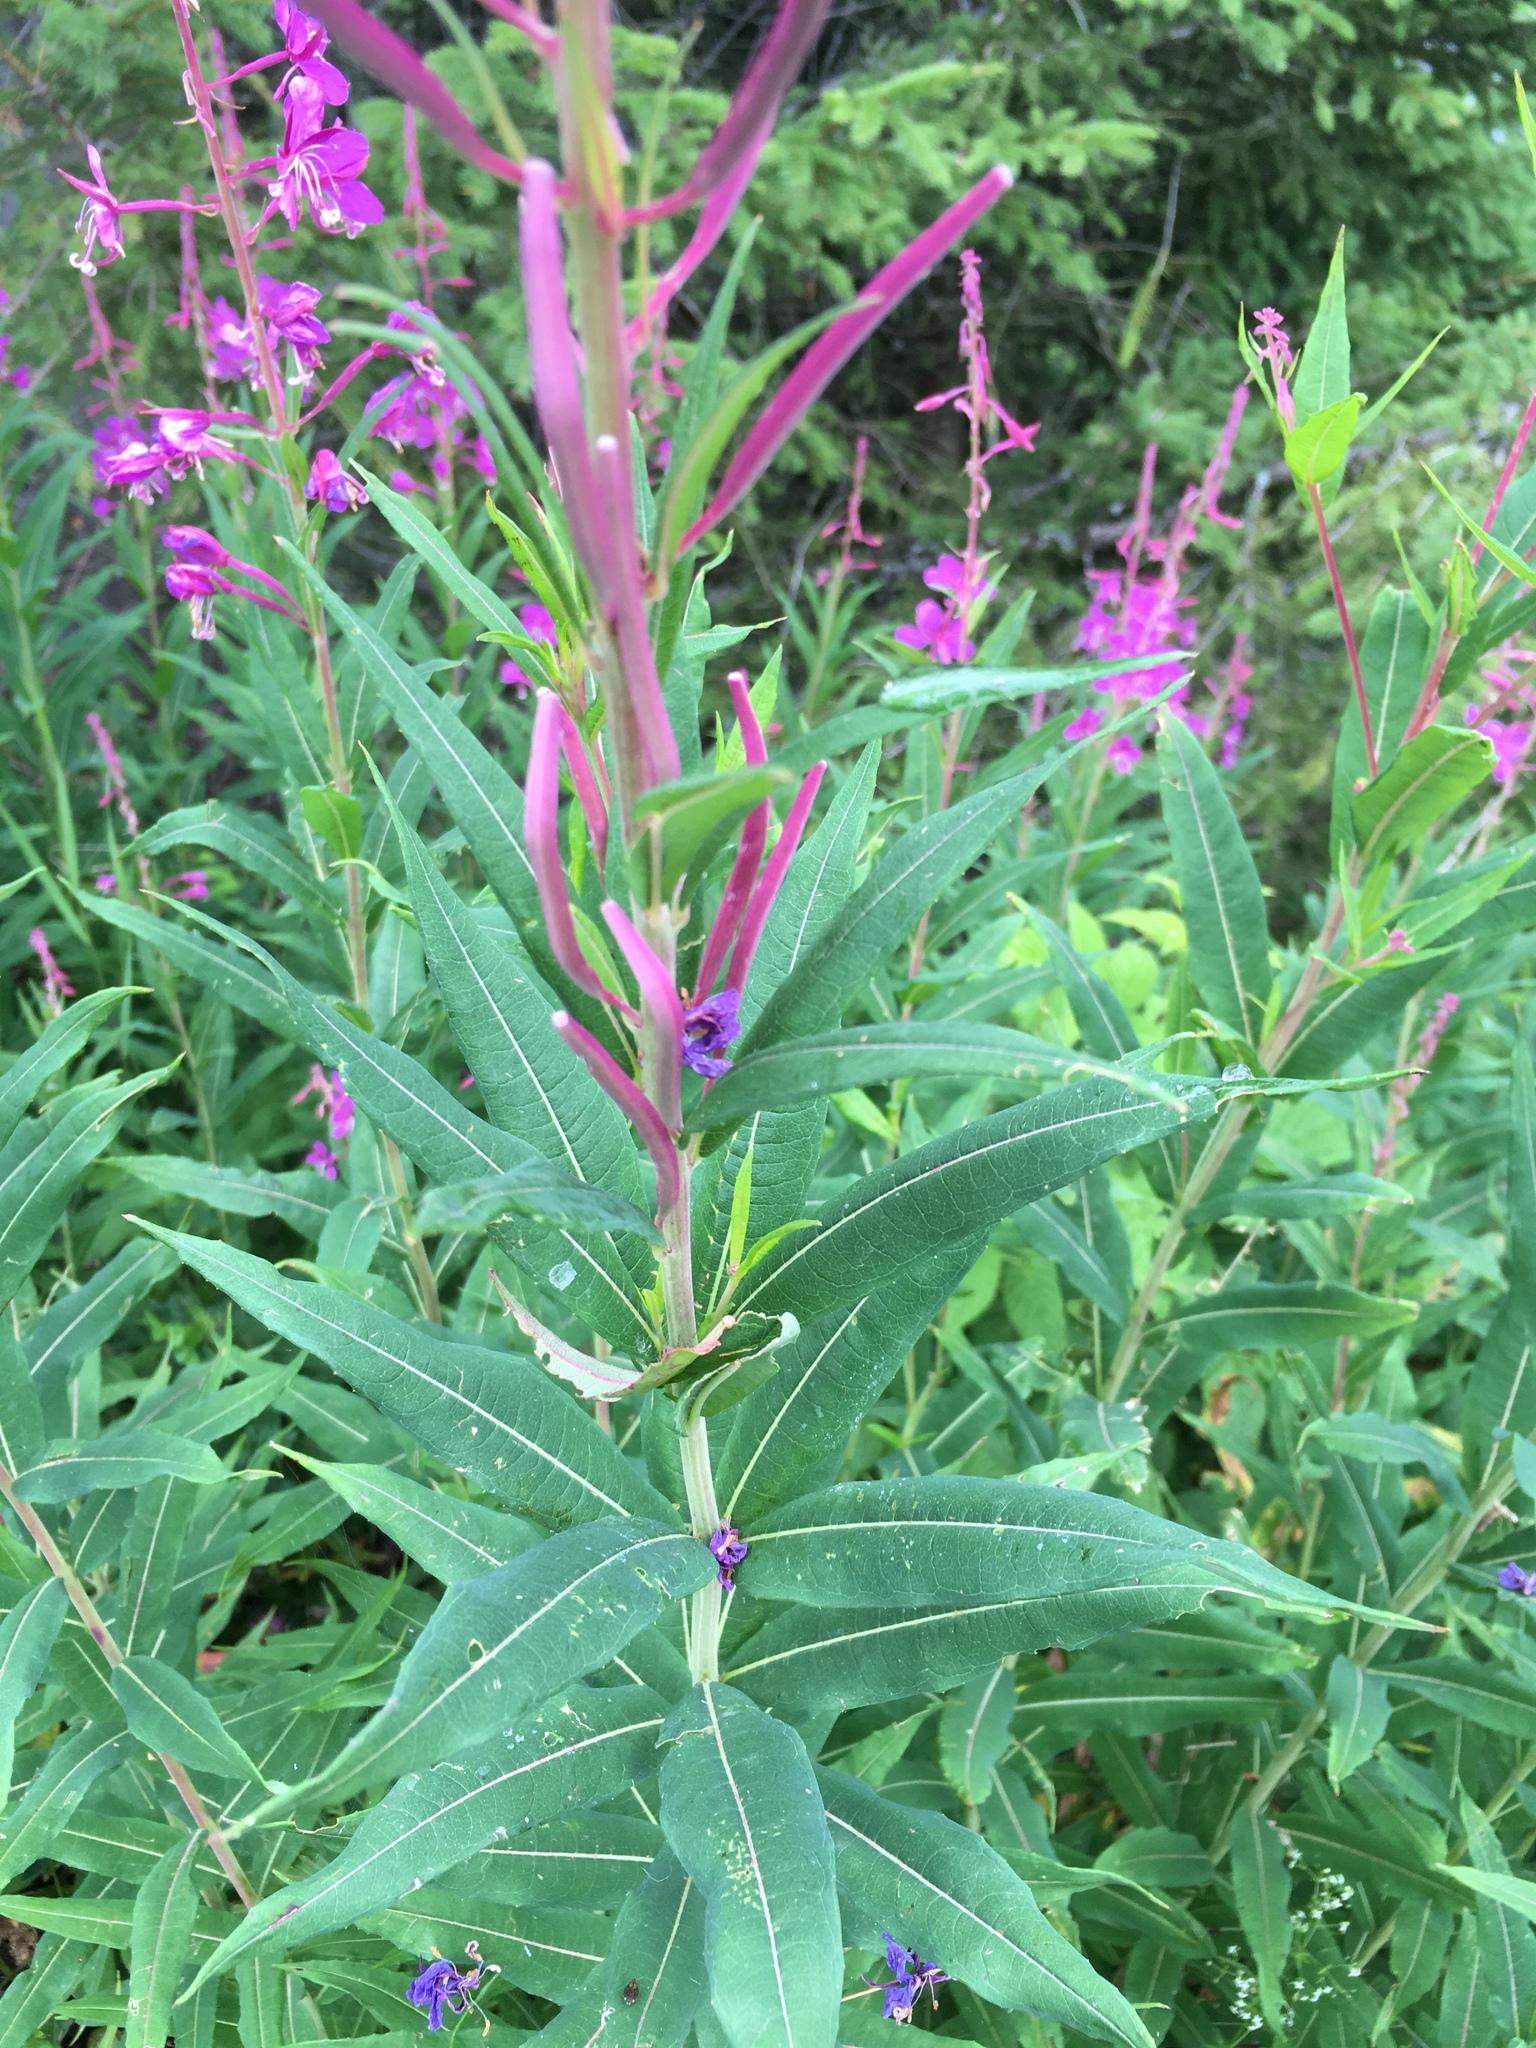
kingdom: Plantae
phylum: Tracheophyta
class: Magnoliopsida
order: Myrtales
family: Onagraceae
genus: Chamaenerion
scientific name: Chamaenerion angustifolium
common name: Fireweed
